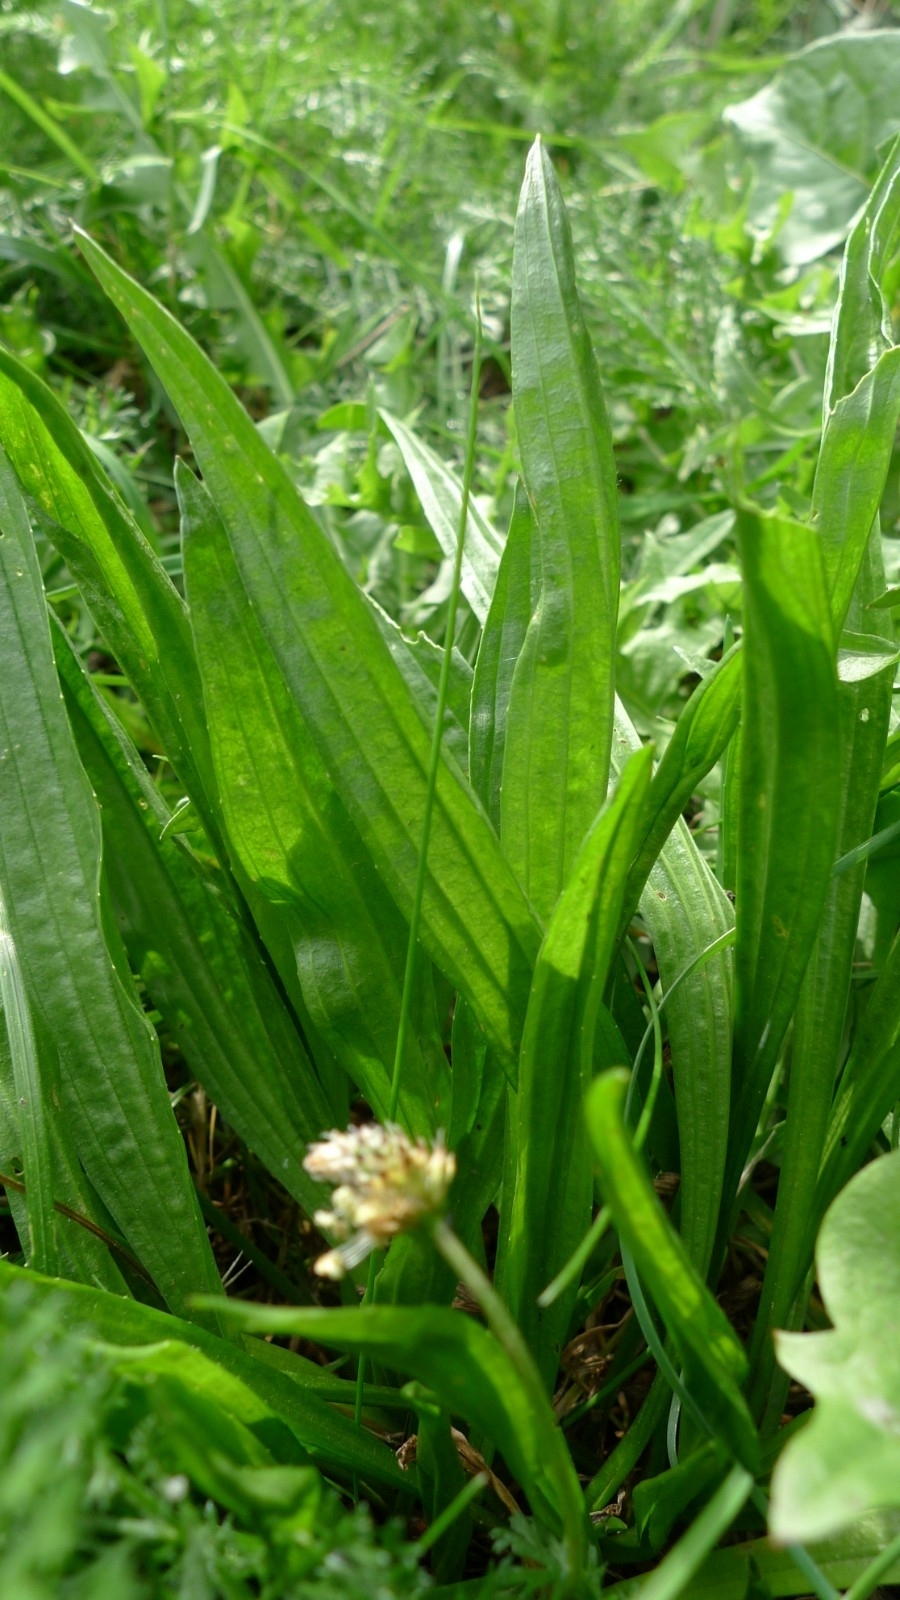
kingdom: Plantae
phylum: Tracheophyta
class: Magnoliopsida
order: Lamiales
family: Plantaginaceae
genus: Plantago
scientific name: Plantago lanceolata
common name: Ribwort plantain
